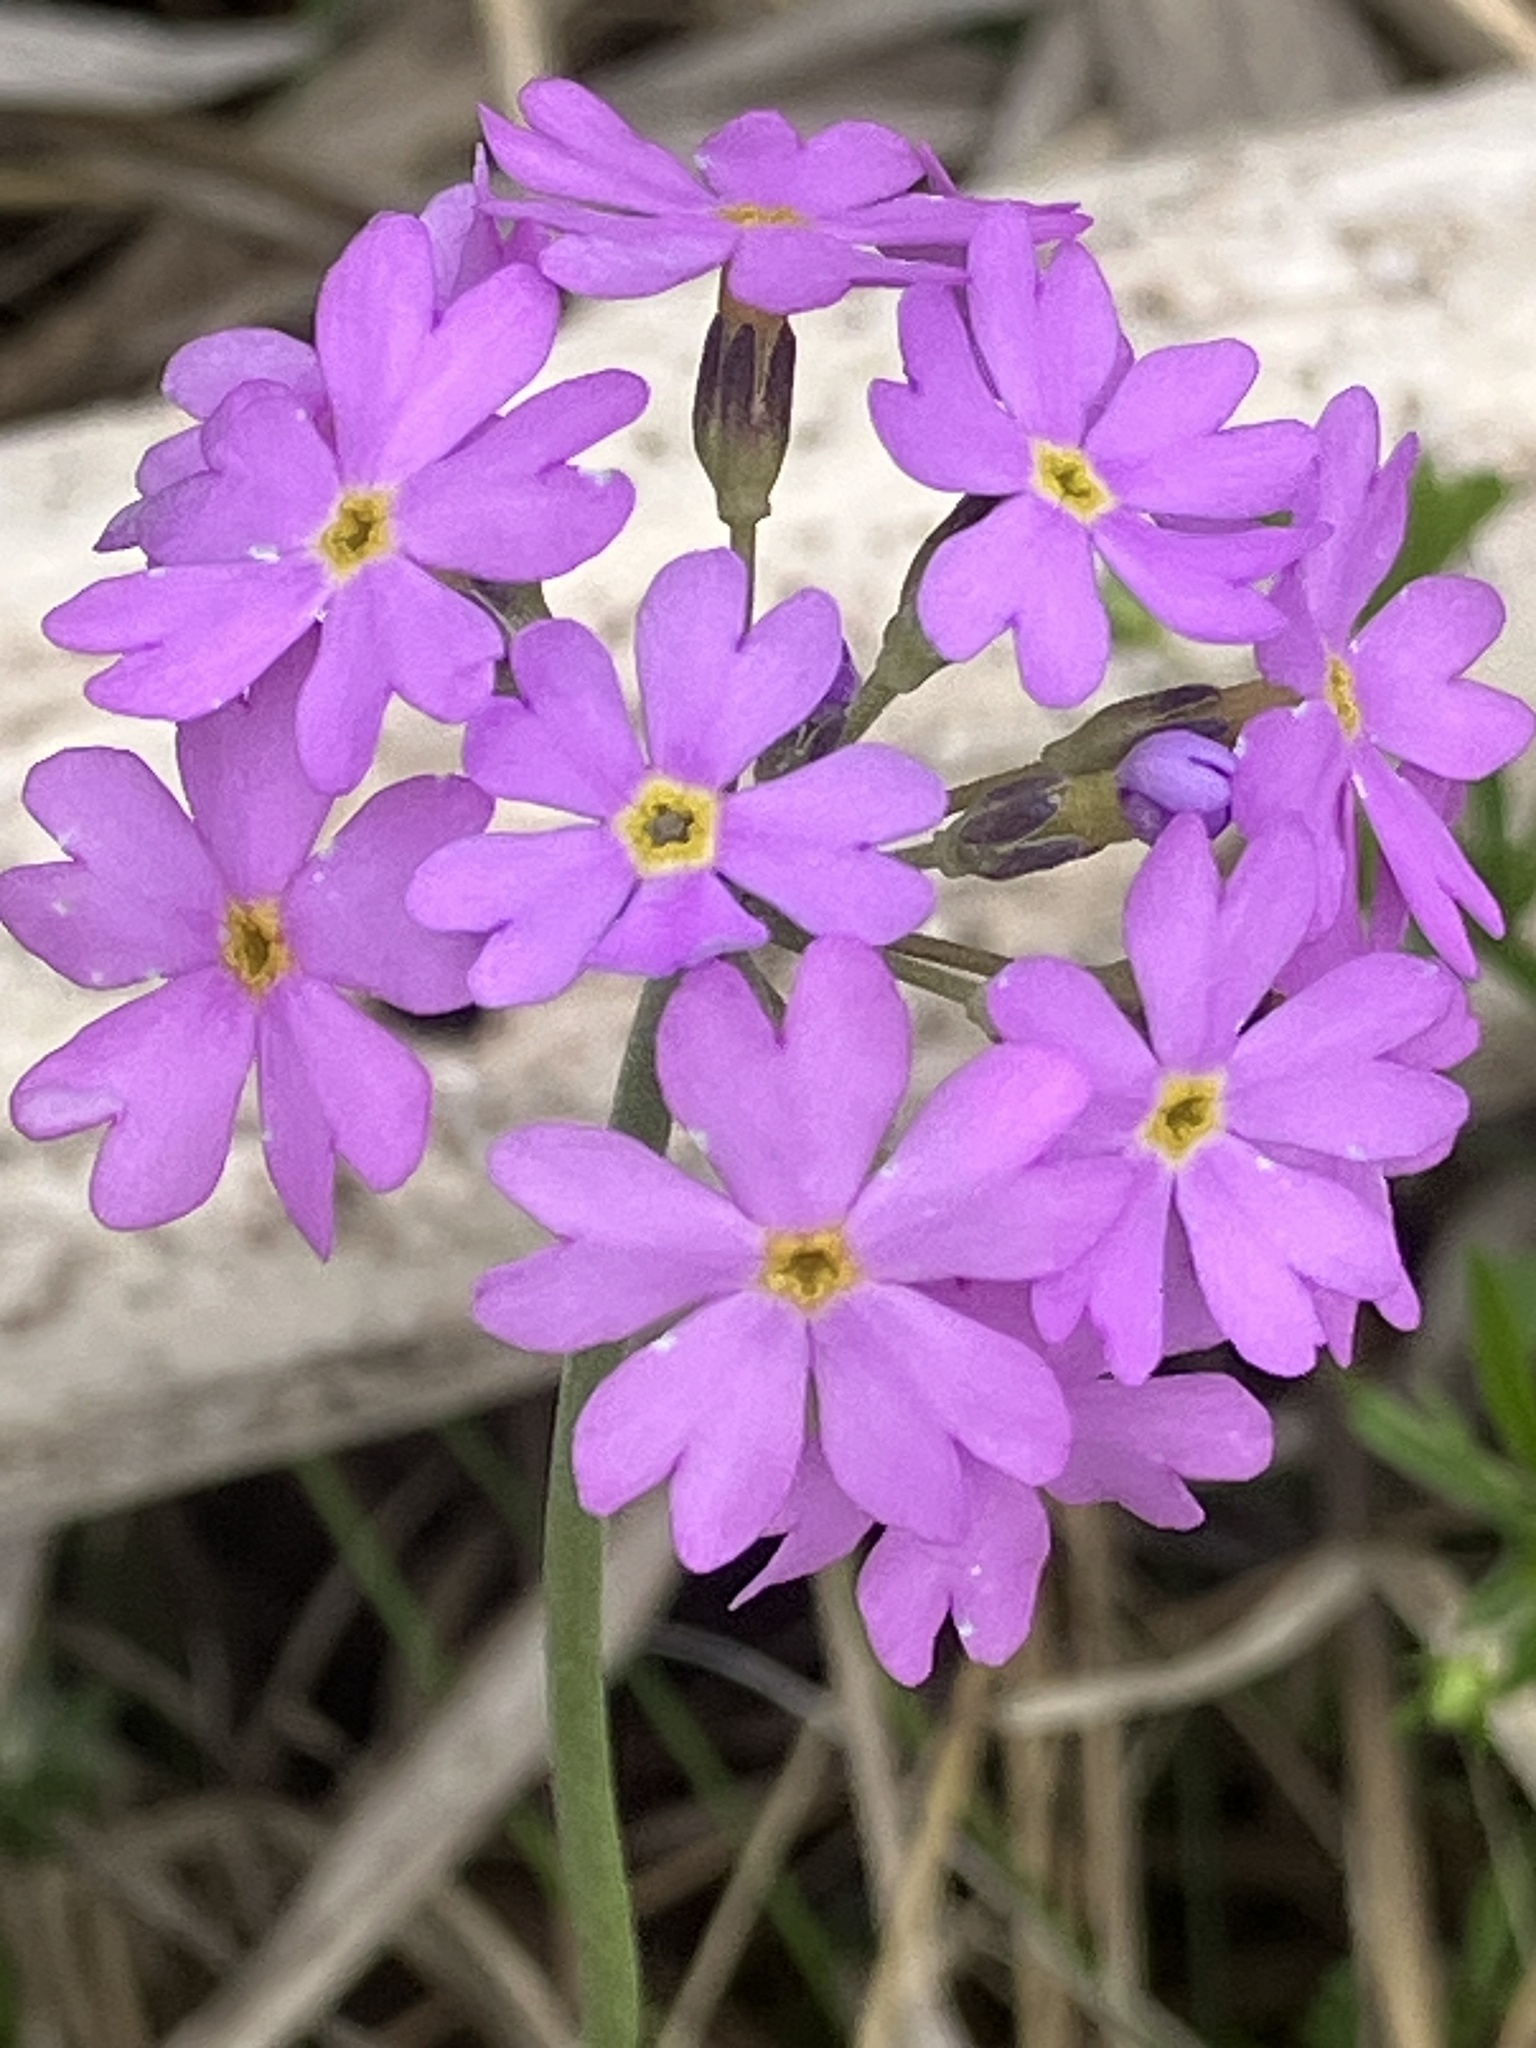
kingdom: Plantae
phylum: Tracheophyta
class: Magnoliopsida
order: Ericales
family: Primulaceae
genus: Primula
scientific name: Primula farinosa
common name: Bird's-eye primrose
